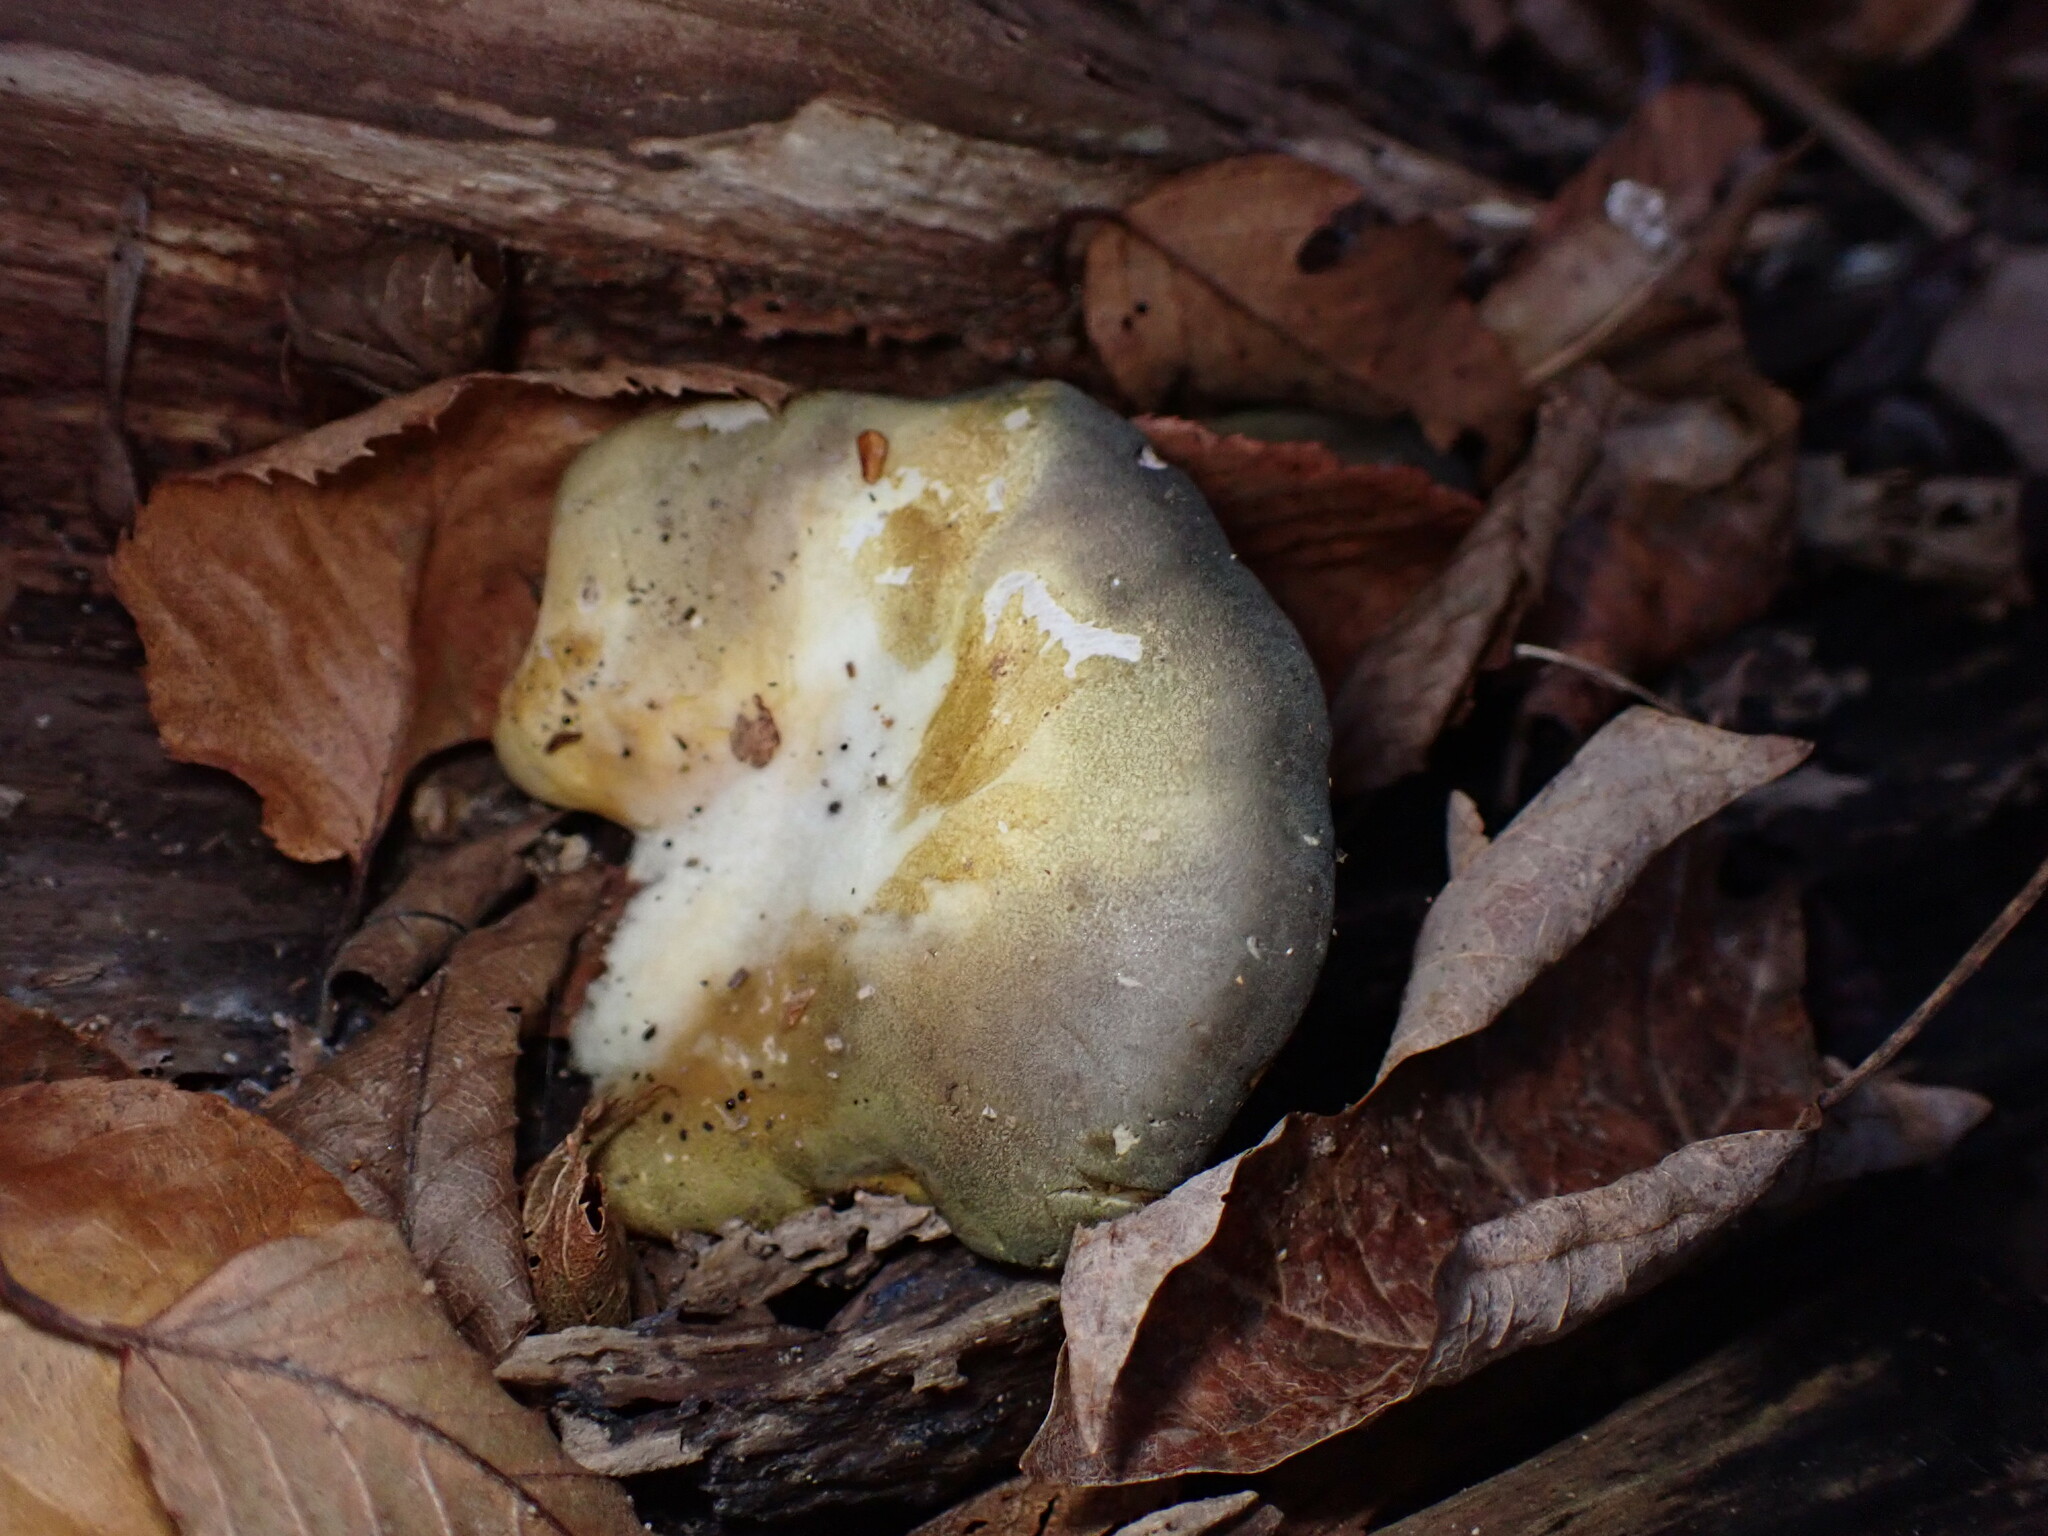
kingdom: Fungi
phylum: Basidiomycota
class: Agaricomycetes
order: Agaricales
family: Sarcomyxaceae
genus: Sarcomyxa
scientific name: Sarcomyxa serotina
